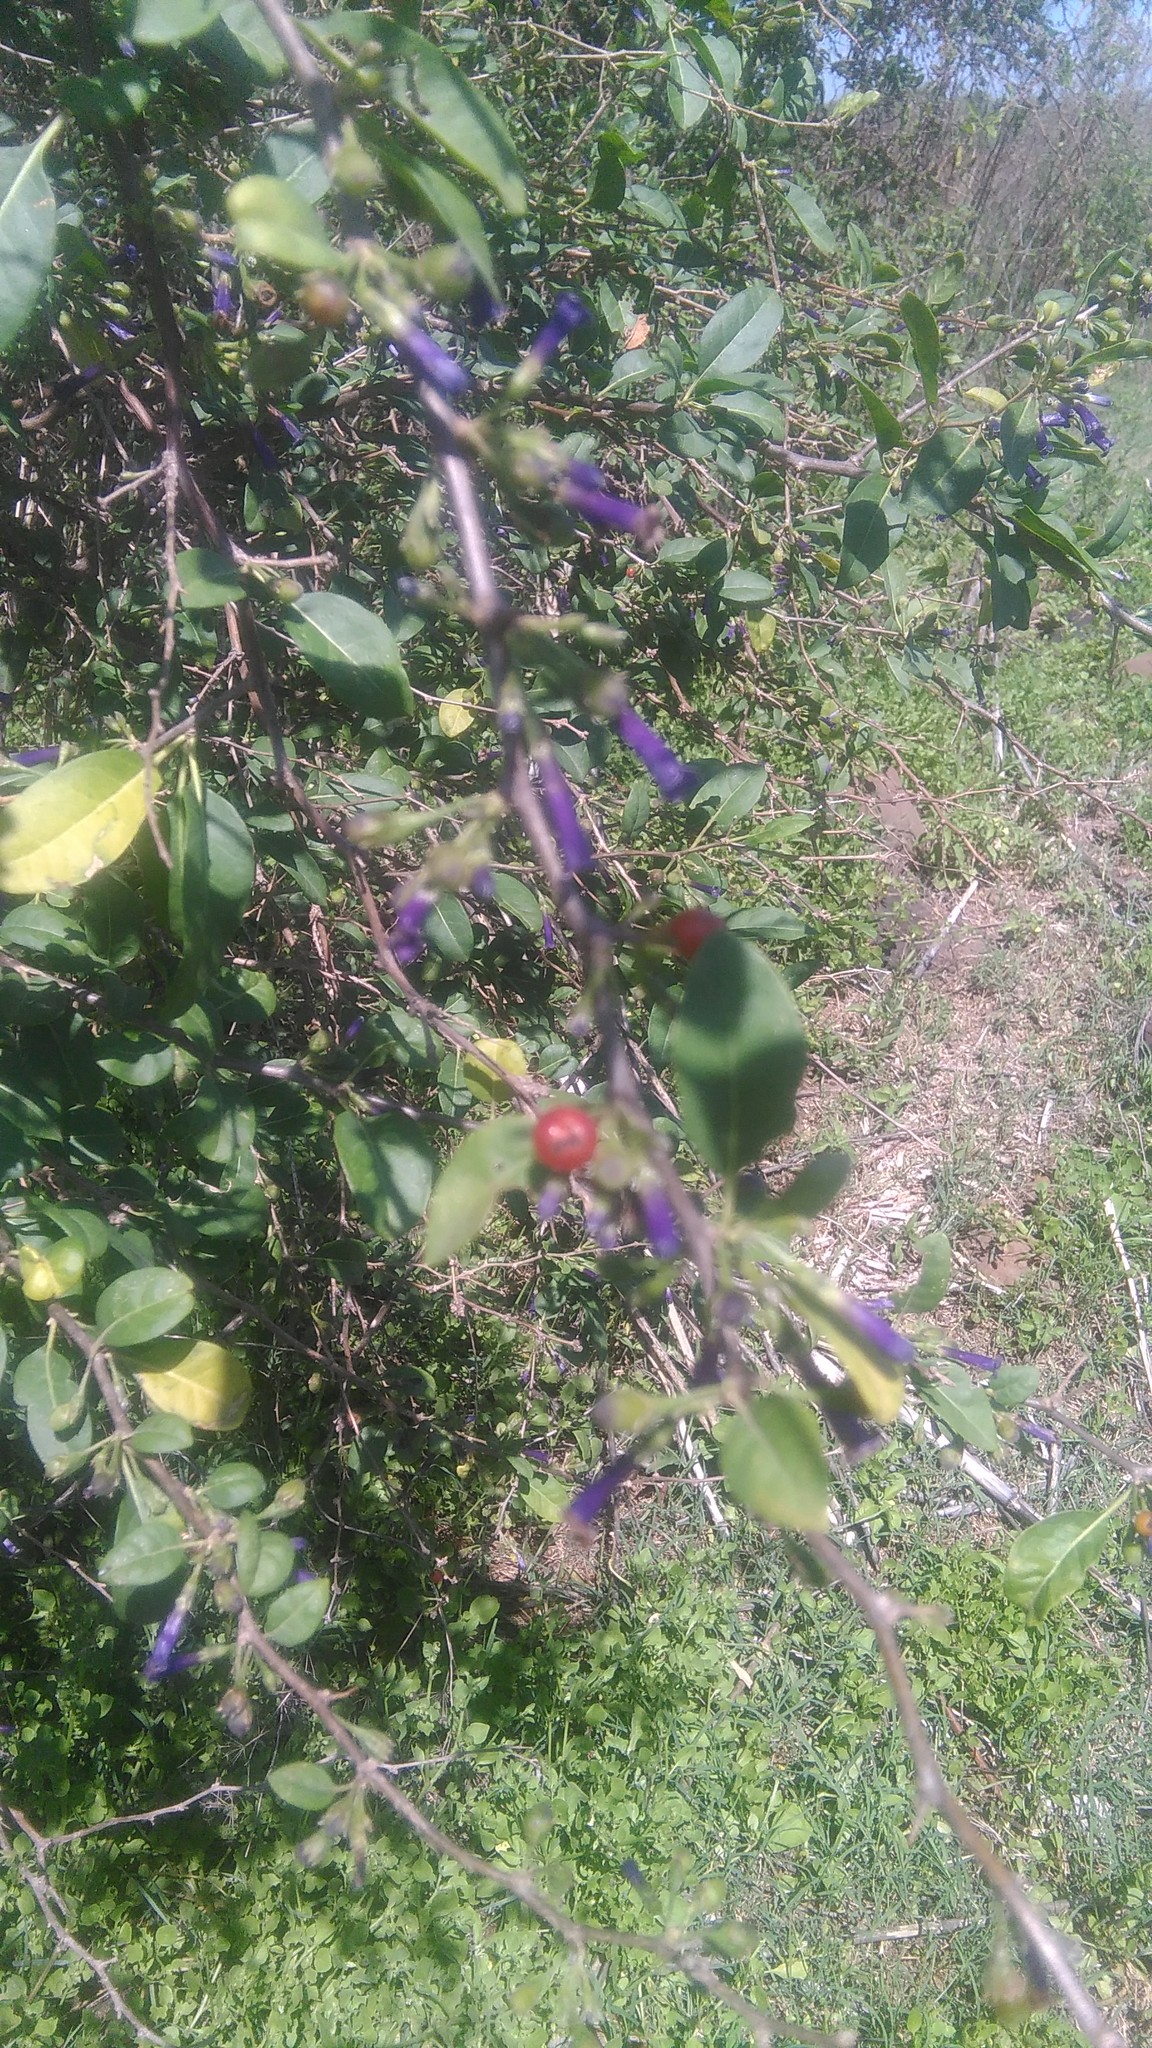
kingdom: Plantae
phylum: Tracheophyta
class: Magnoliopsida
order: Solanales
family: Solanaceae
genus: Lycium
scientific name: Lycium cestroides
